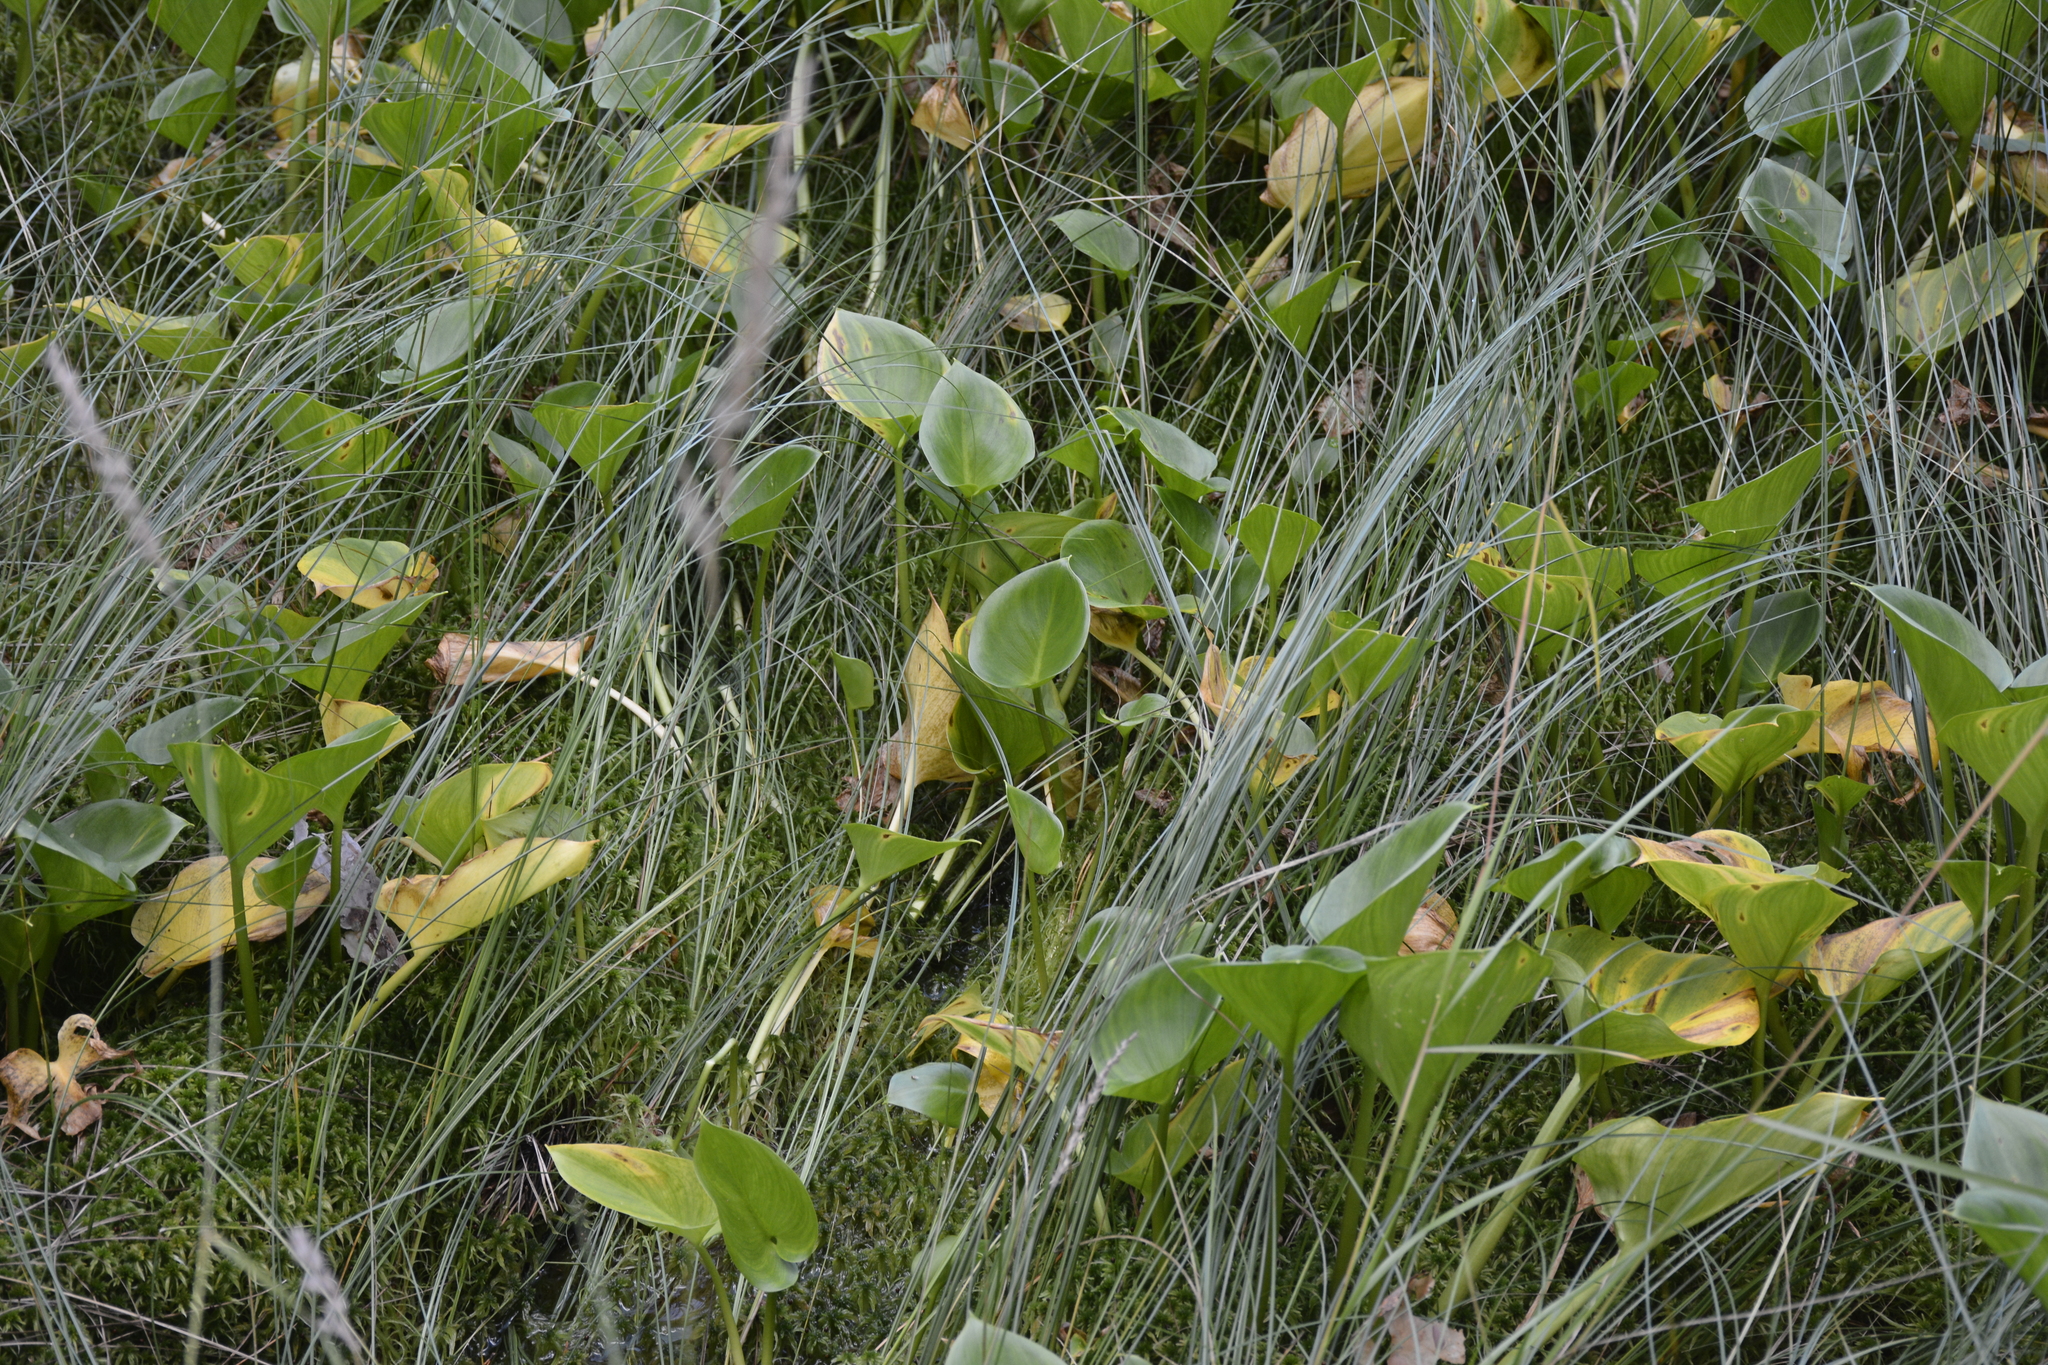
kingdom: Plantae
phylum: Tracheophyta
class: Liliopsida
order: Alismatales
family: Araceae
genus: Calla
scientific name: Calla palustris
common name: Bog arum
